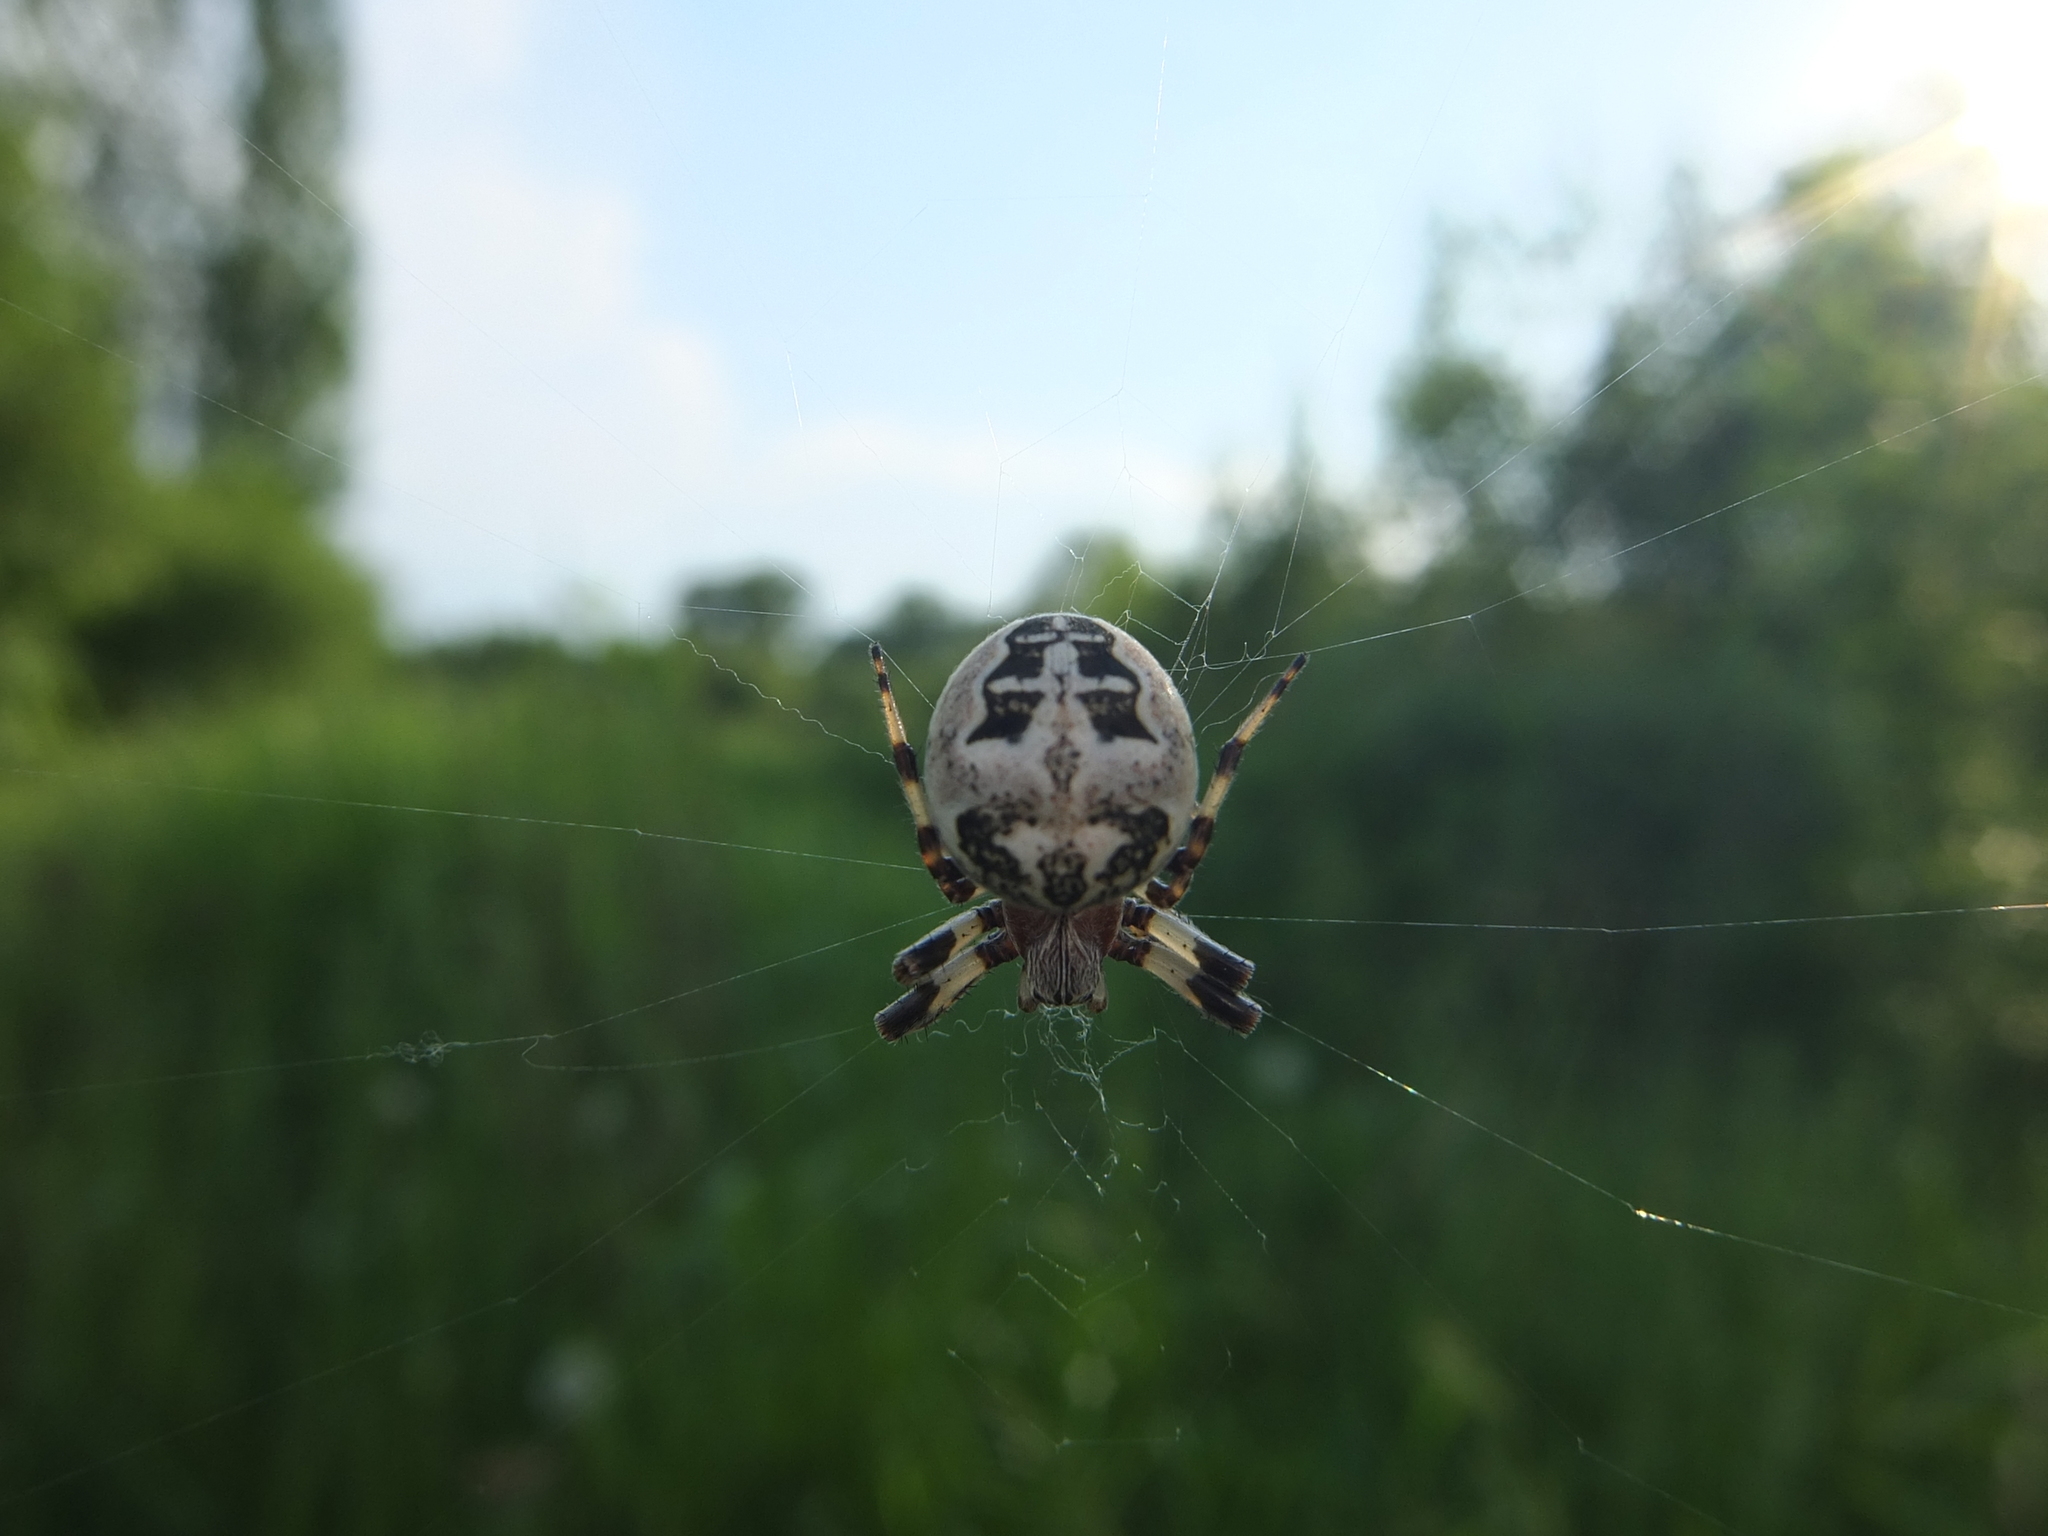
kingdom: Animalia
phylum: Arthropoda
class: Arachnida
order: Araneae
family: Araneidae
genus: Larinioides
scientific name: Larinioides cornutus
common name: Furrow orbweaver
